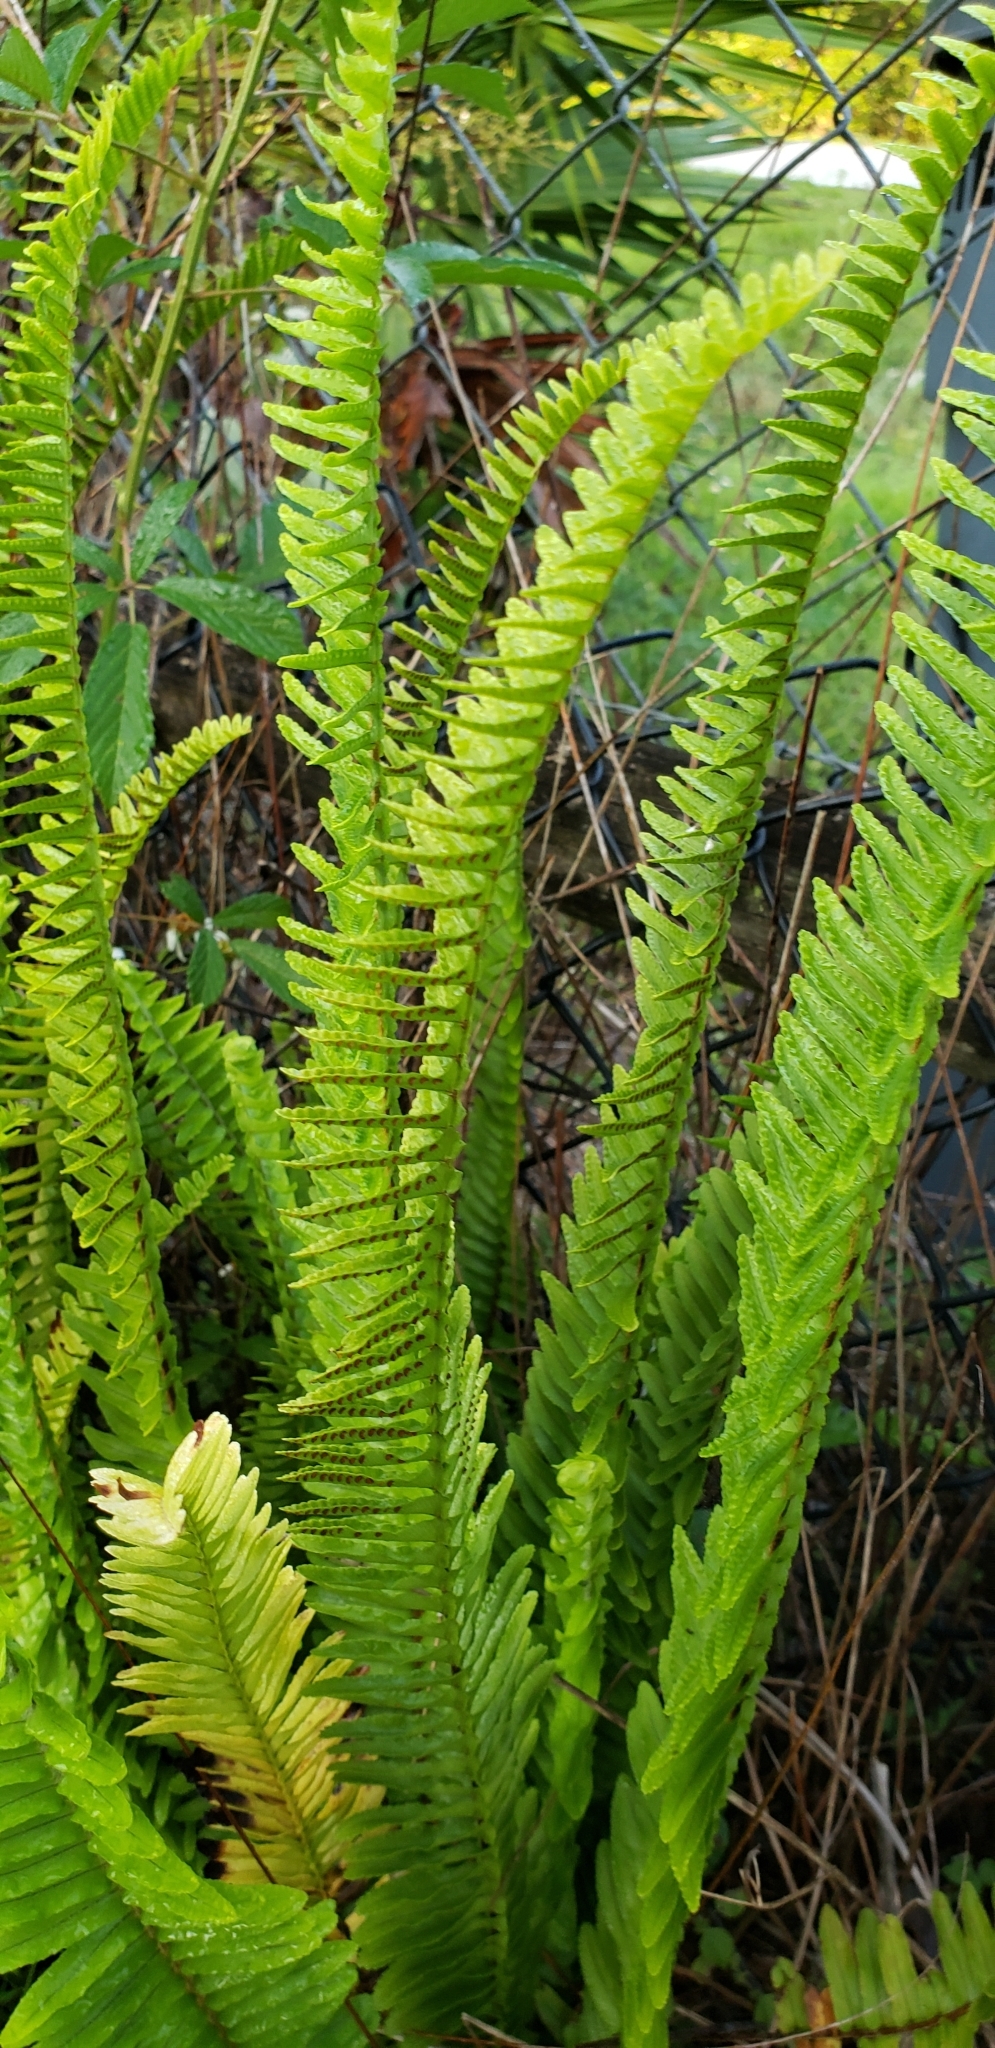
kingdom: Plantae
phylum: Tracheophyta
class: Polypodiopsida
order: Polypodiales
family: Nephrolepidaceae
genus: Nephrolepis
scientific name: Nephrolepis cordifolia
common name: Narrow swordfern
